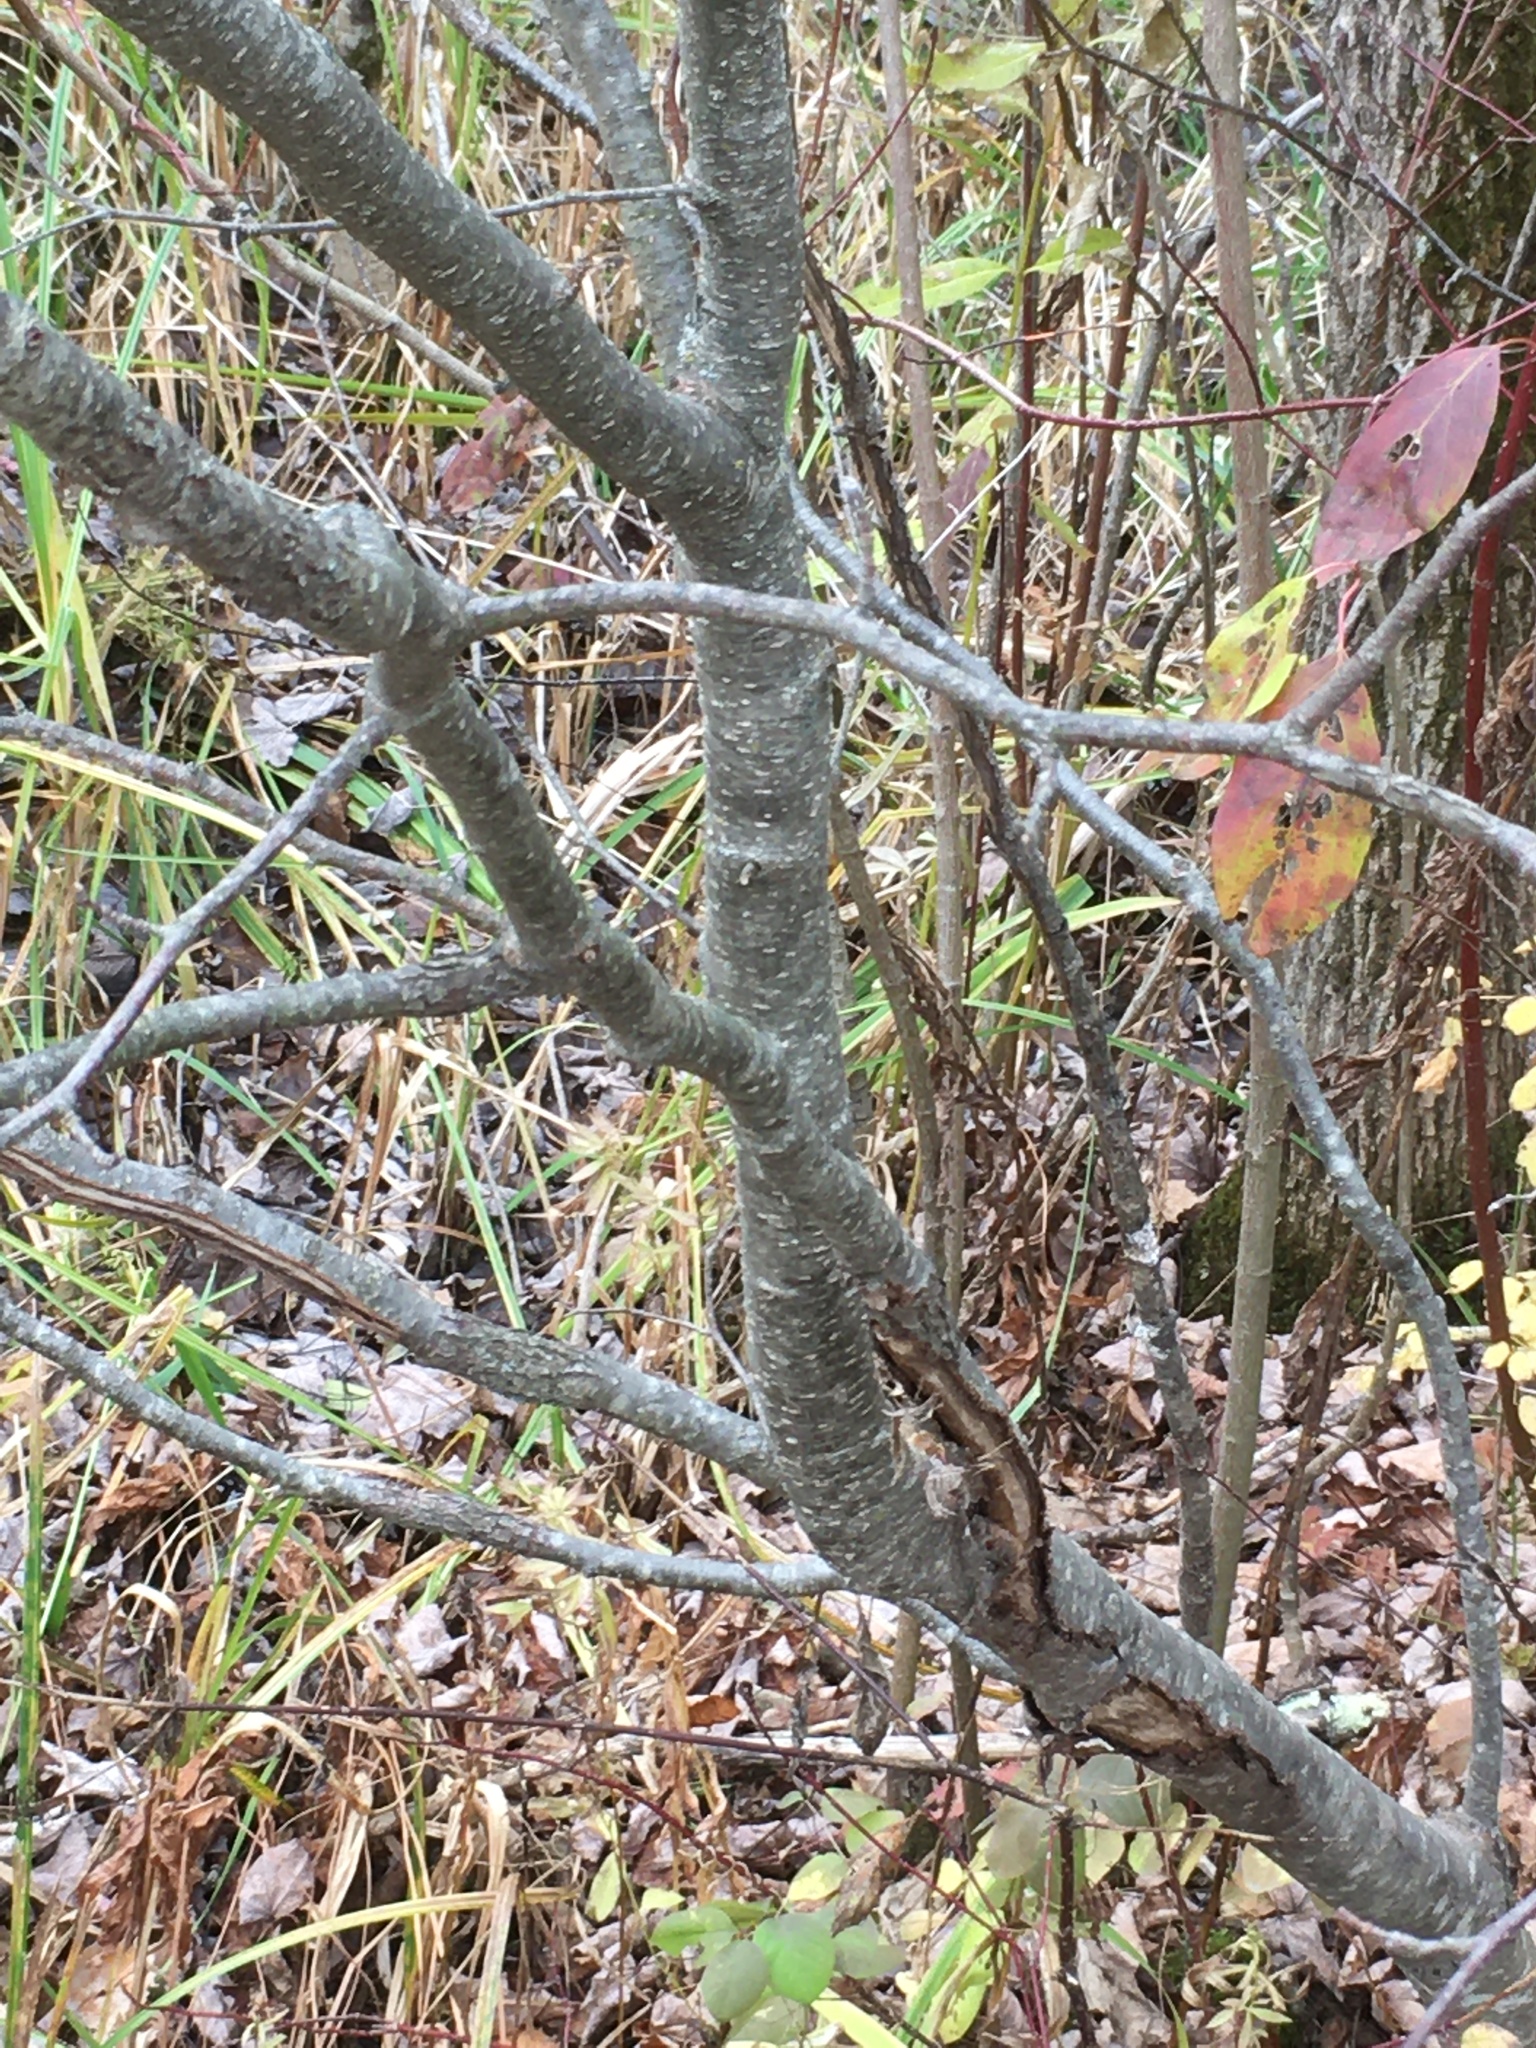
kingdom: Plantae
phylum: Tracheophyta
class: Magnoliopsida
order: Fagales
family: Betulaceae
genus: Alnus
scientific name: Alnus incana
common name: Grey alder
